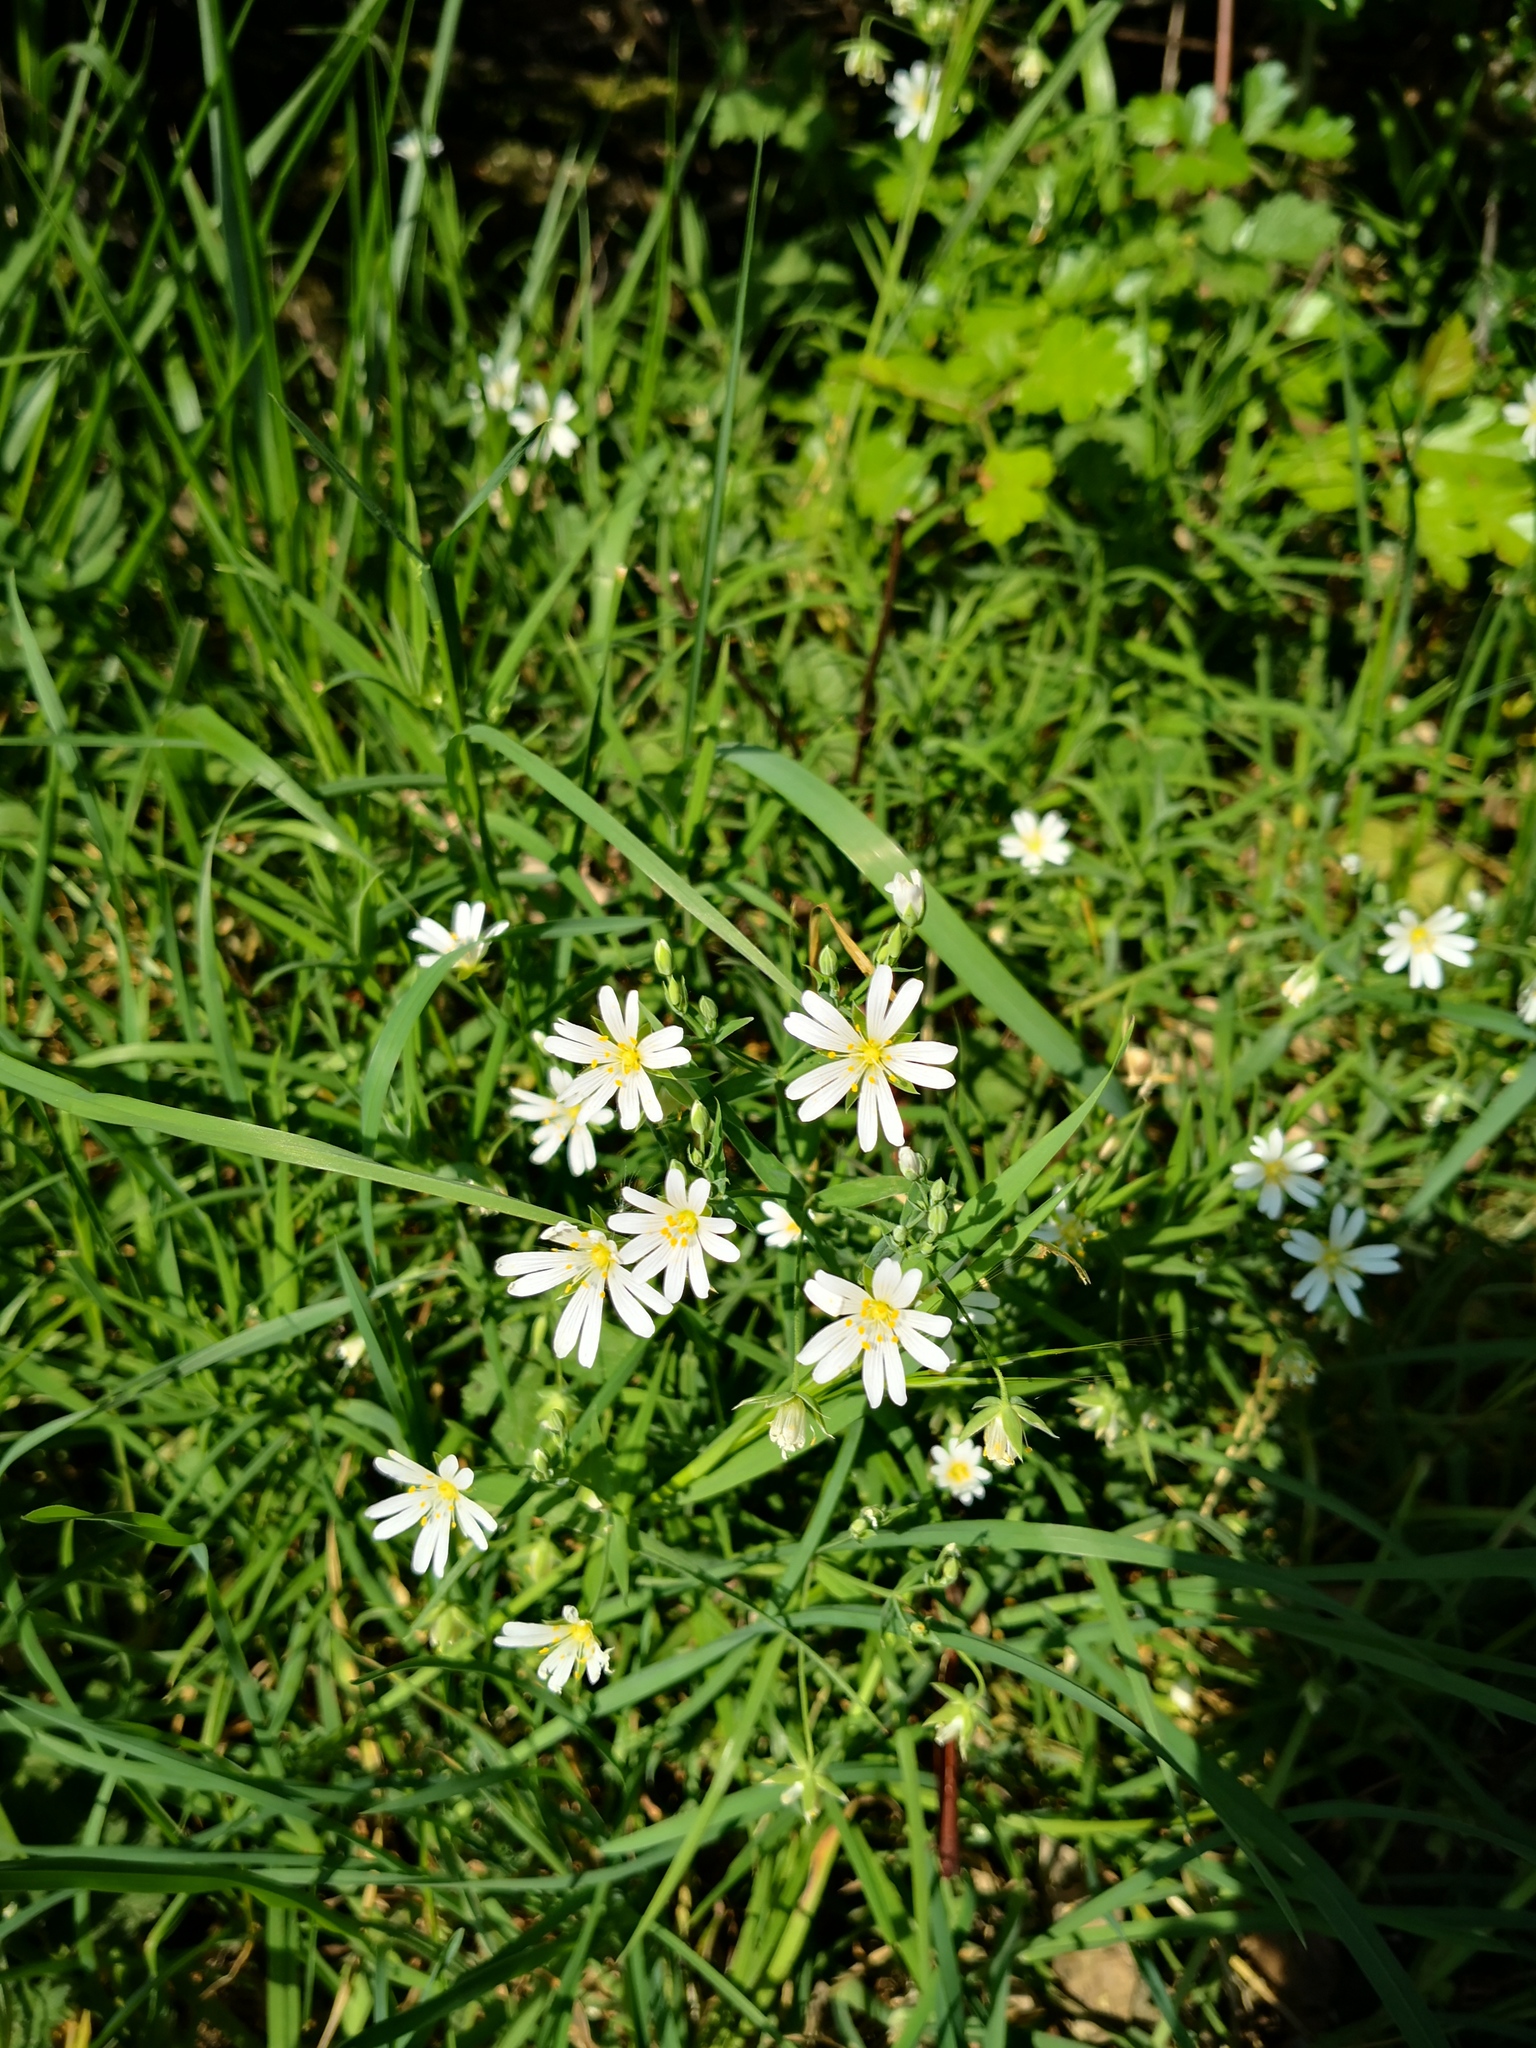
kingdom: Plantae
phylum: Tracheophyta
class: Magnoliopsida
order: Caryophyllales
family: Caryophyllaceae
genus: Rabelera
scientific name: Rabelera holostea
